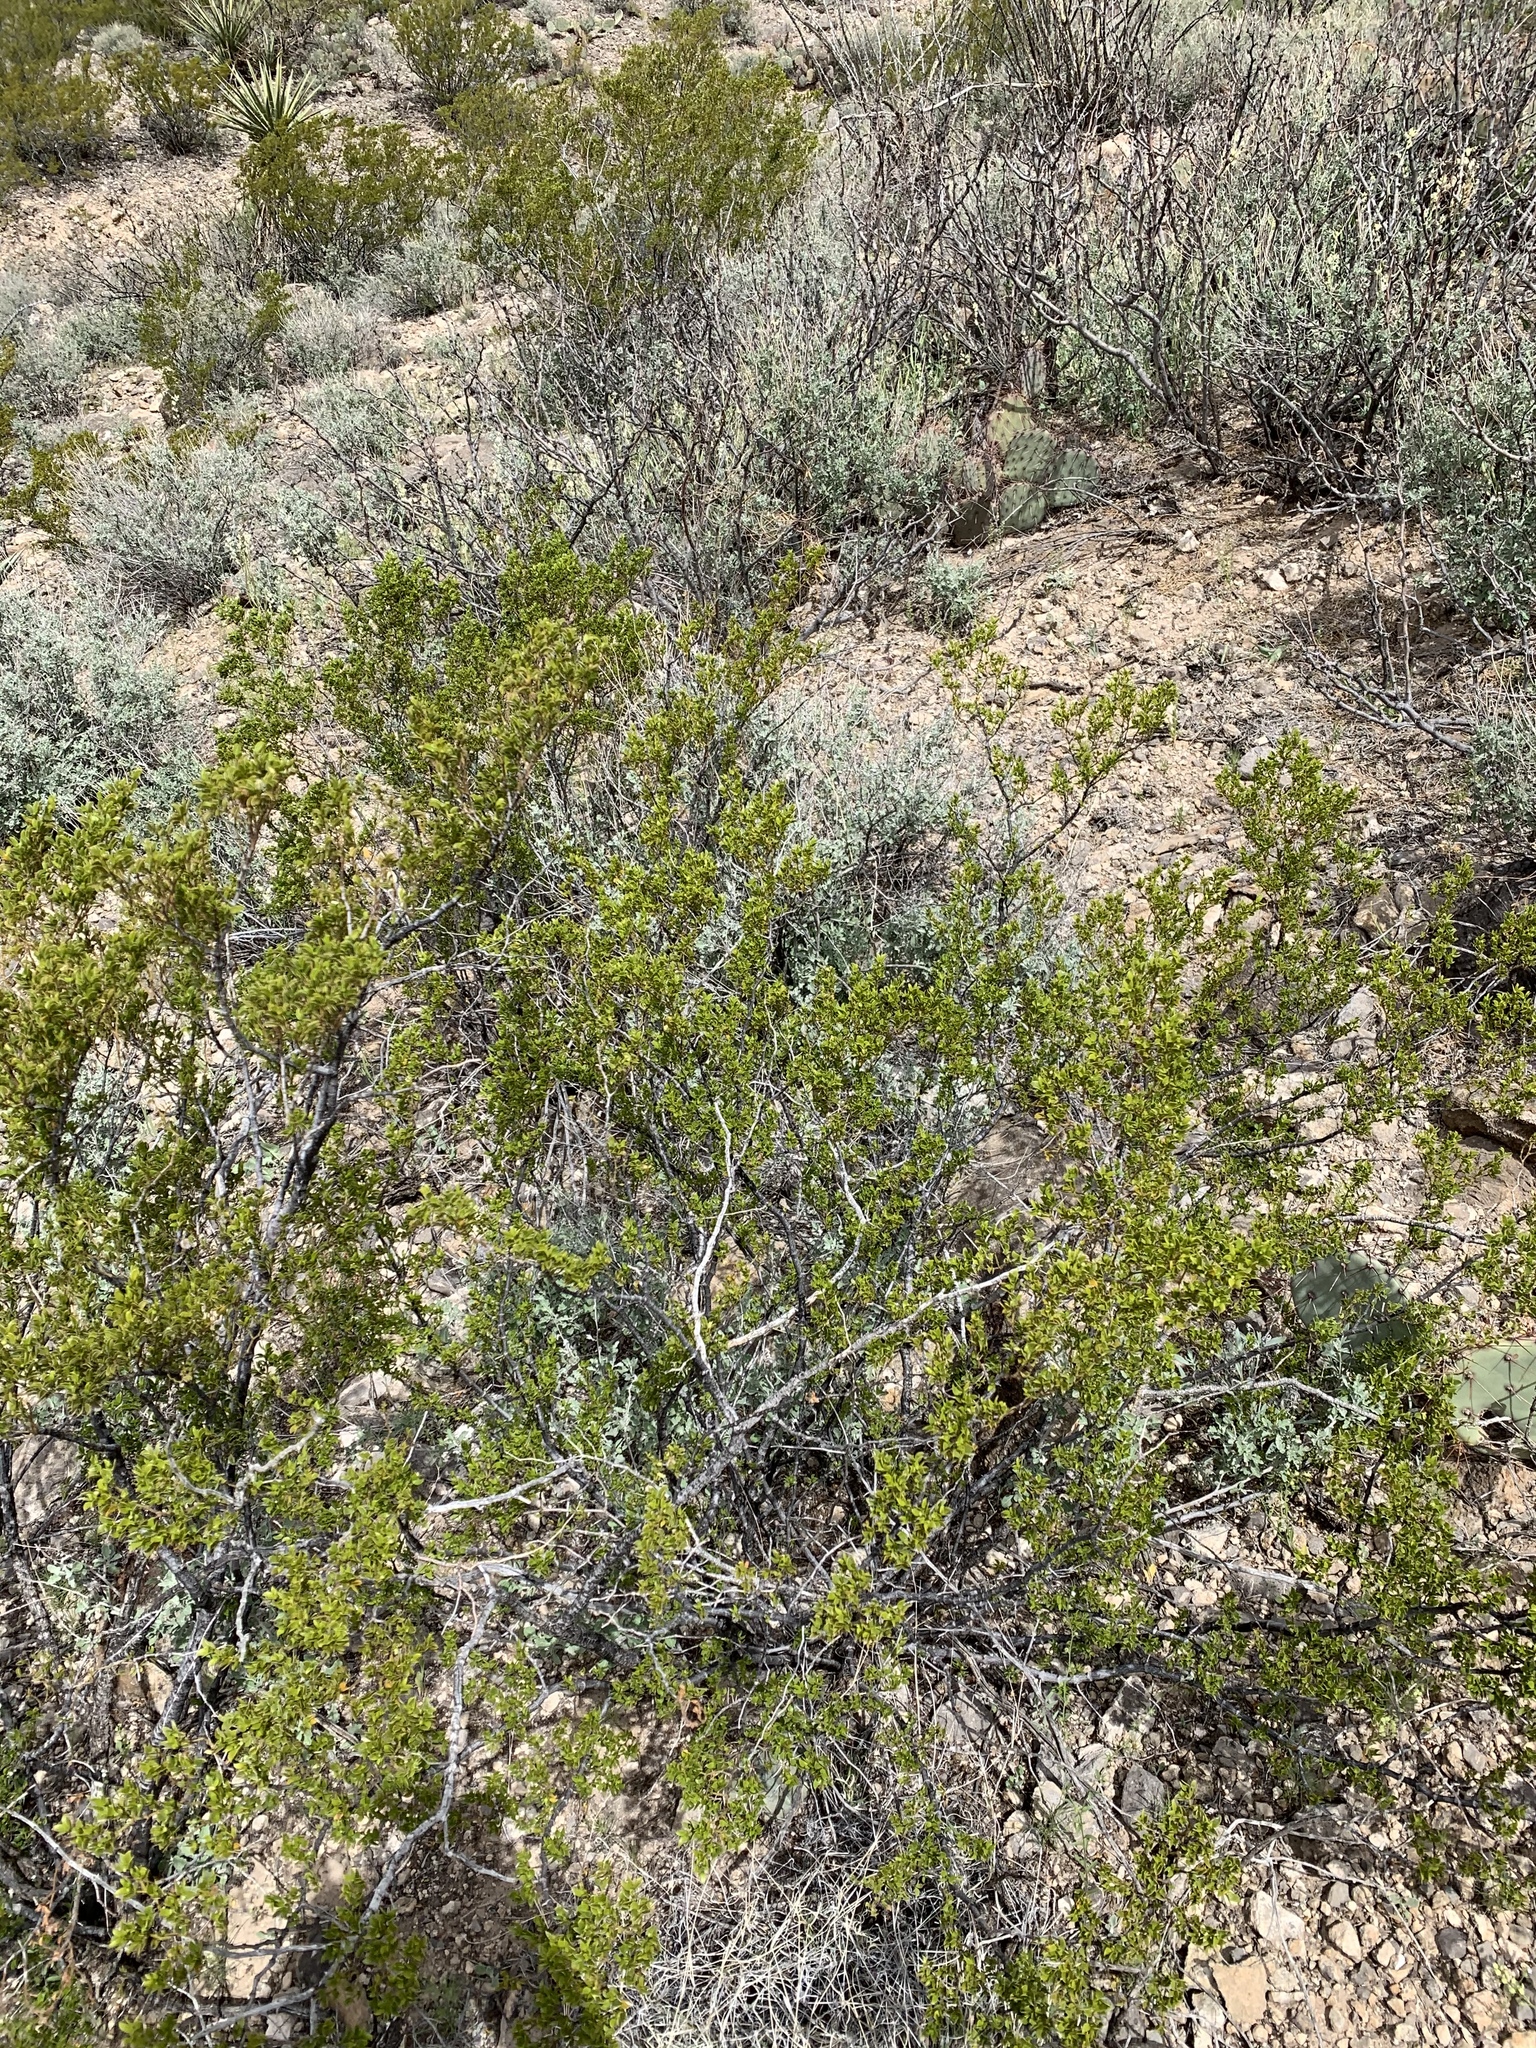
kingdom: Plantae
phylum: Tracheophyta
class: Magnoliopsida
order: Zygophyllales
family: Zygophyllaceae
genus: Larrea
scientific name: Larrea tridentata
